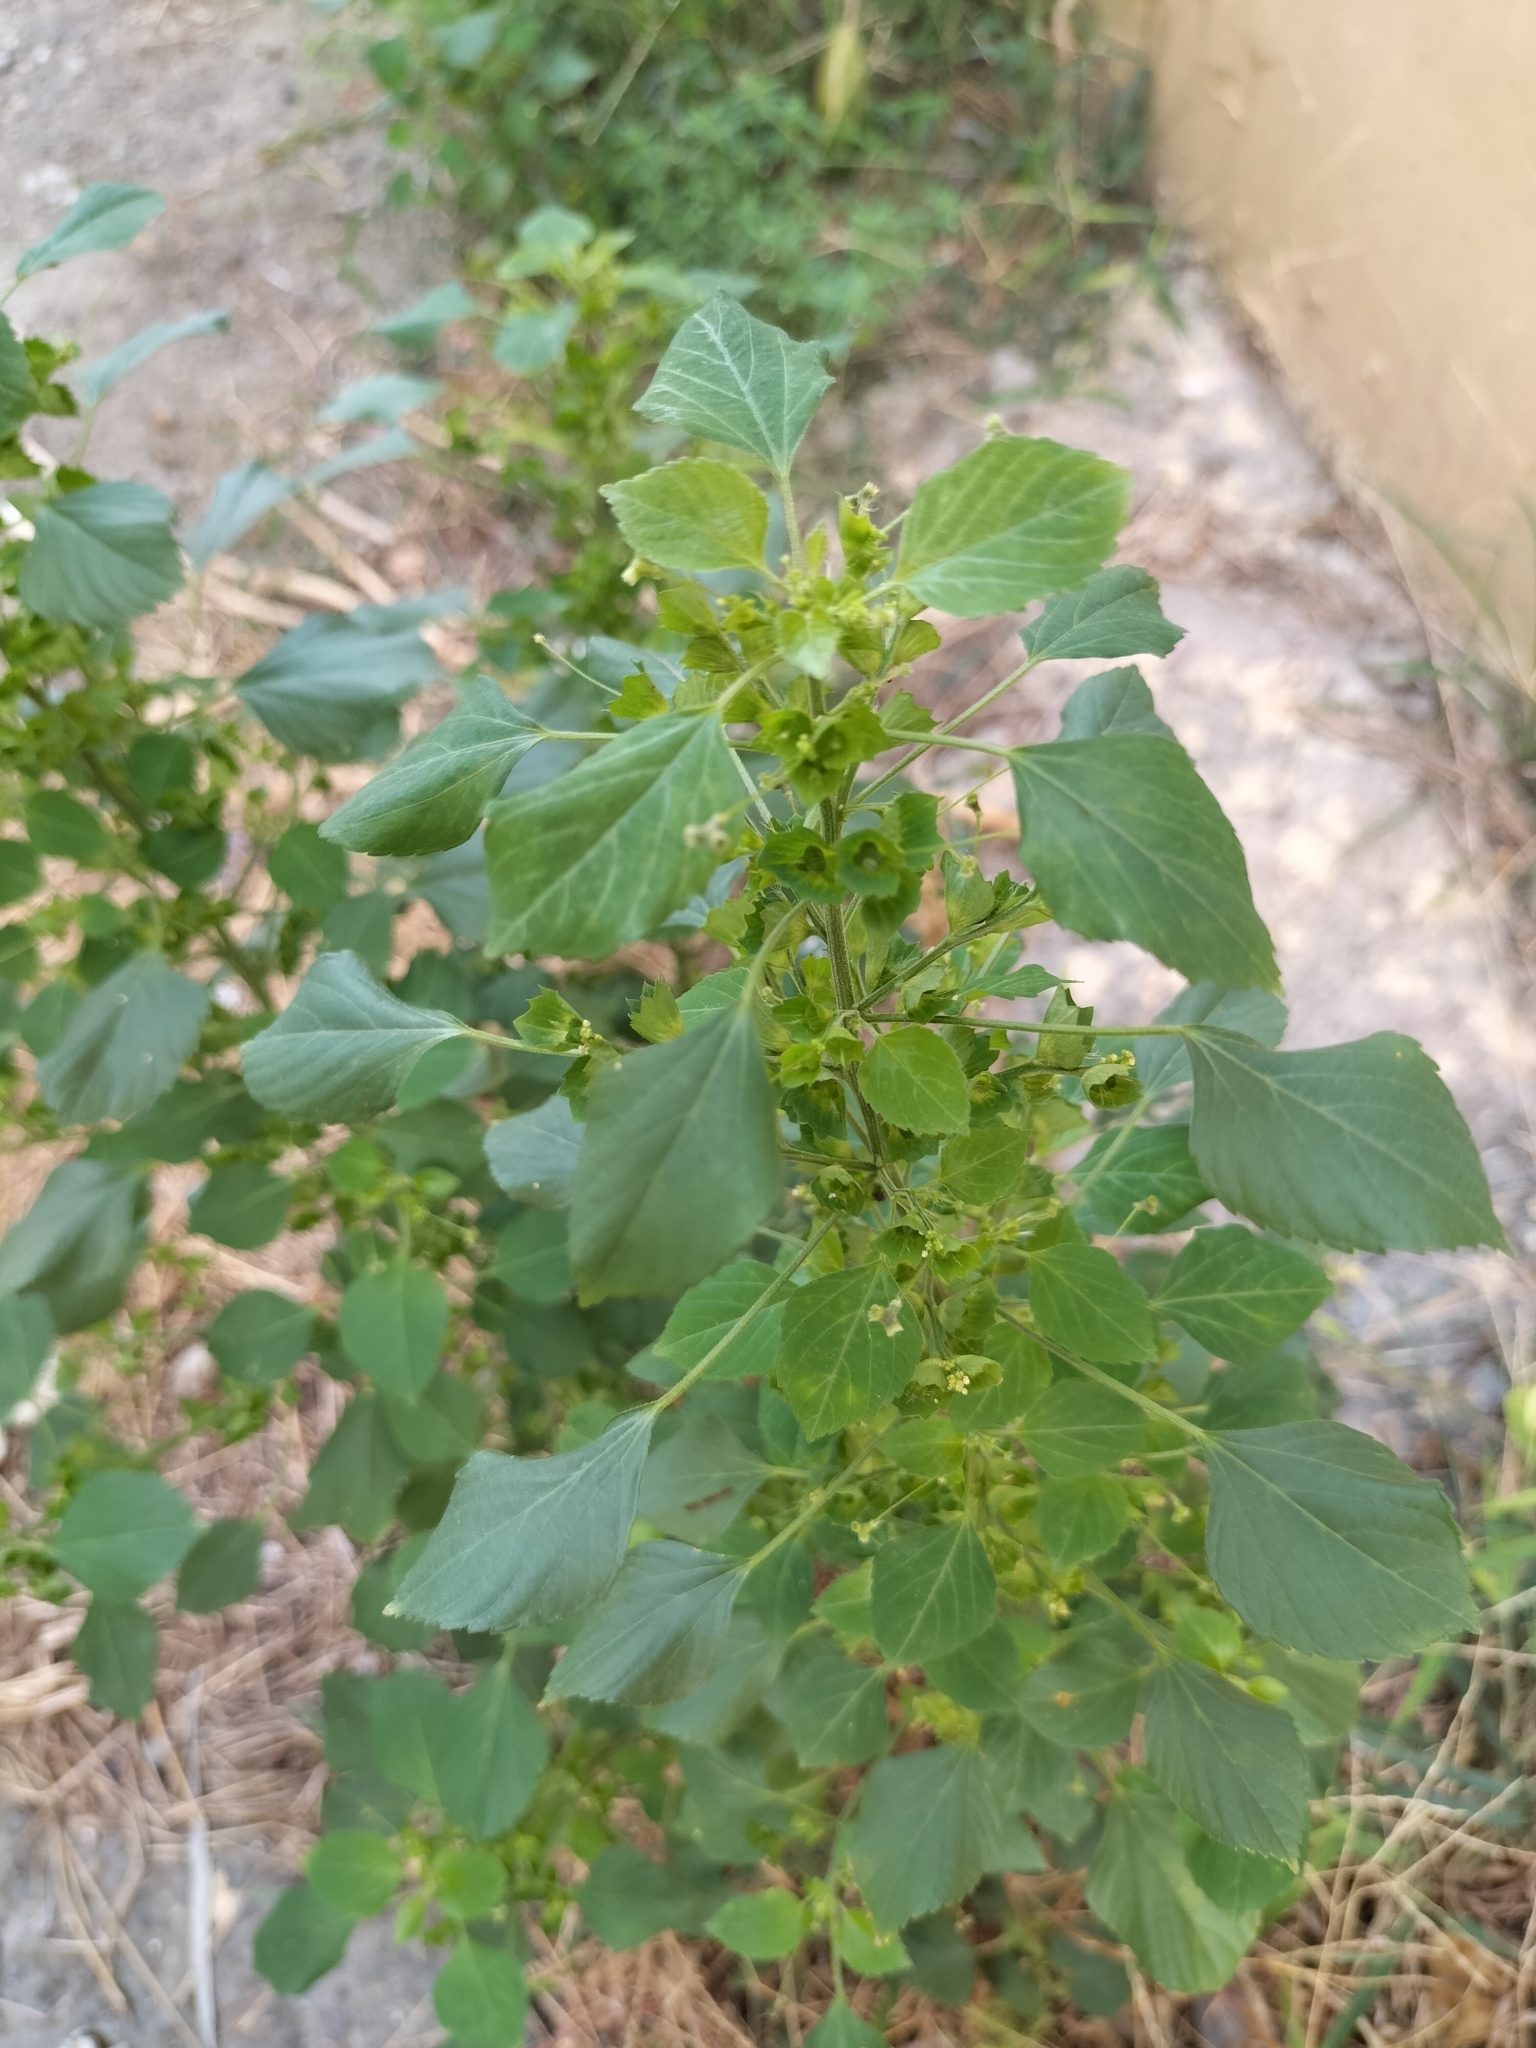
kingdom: Plantae
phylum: Tracheophyta
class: Magnoliopsida
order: Malpighiales
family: Euphorbiaceae
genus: Acalypha
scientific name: Acalypha indica
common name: Indian acalypha
